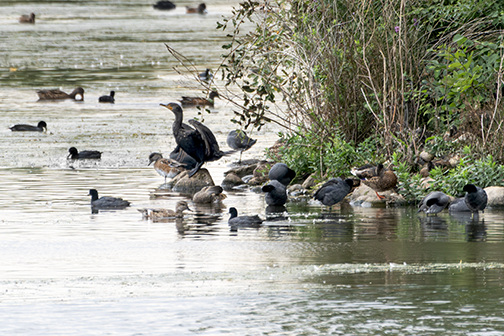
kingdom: Animalia
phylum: Chordata
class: Aves
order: Suliformes
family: Phalacrocoracidae
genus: Phalacrocorax
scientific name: Phalacrocorax auritus
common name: Double-crested cormorant
